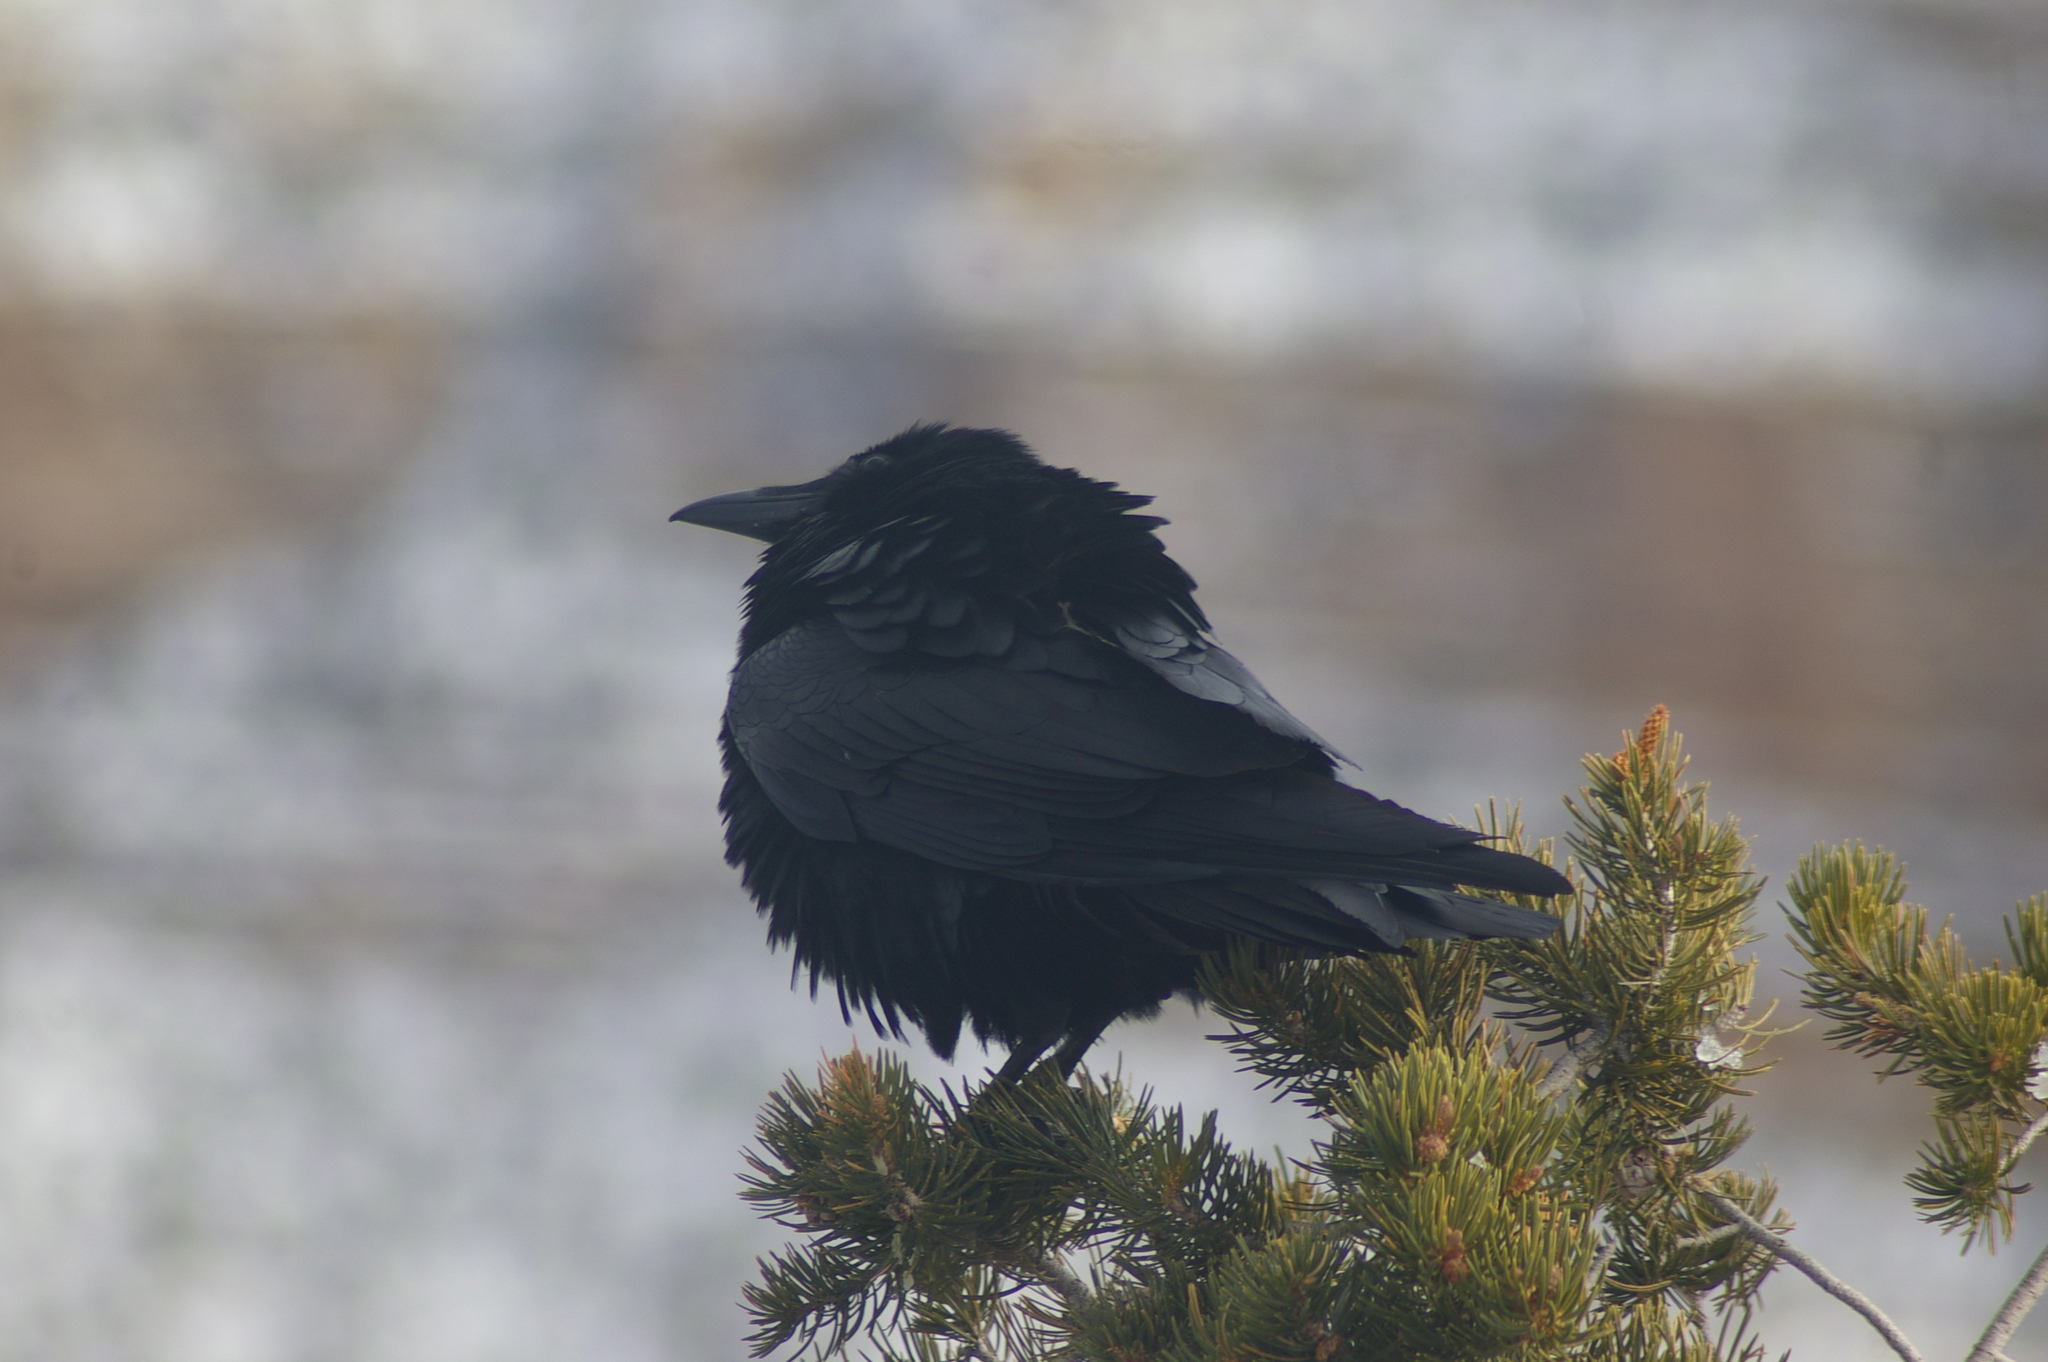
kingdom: Animalia
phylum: Chordata
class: Aves
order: Passeriformes
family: Corvidae
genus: Corvus
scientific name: Corvus corax
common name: Common raven
